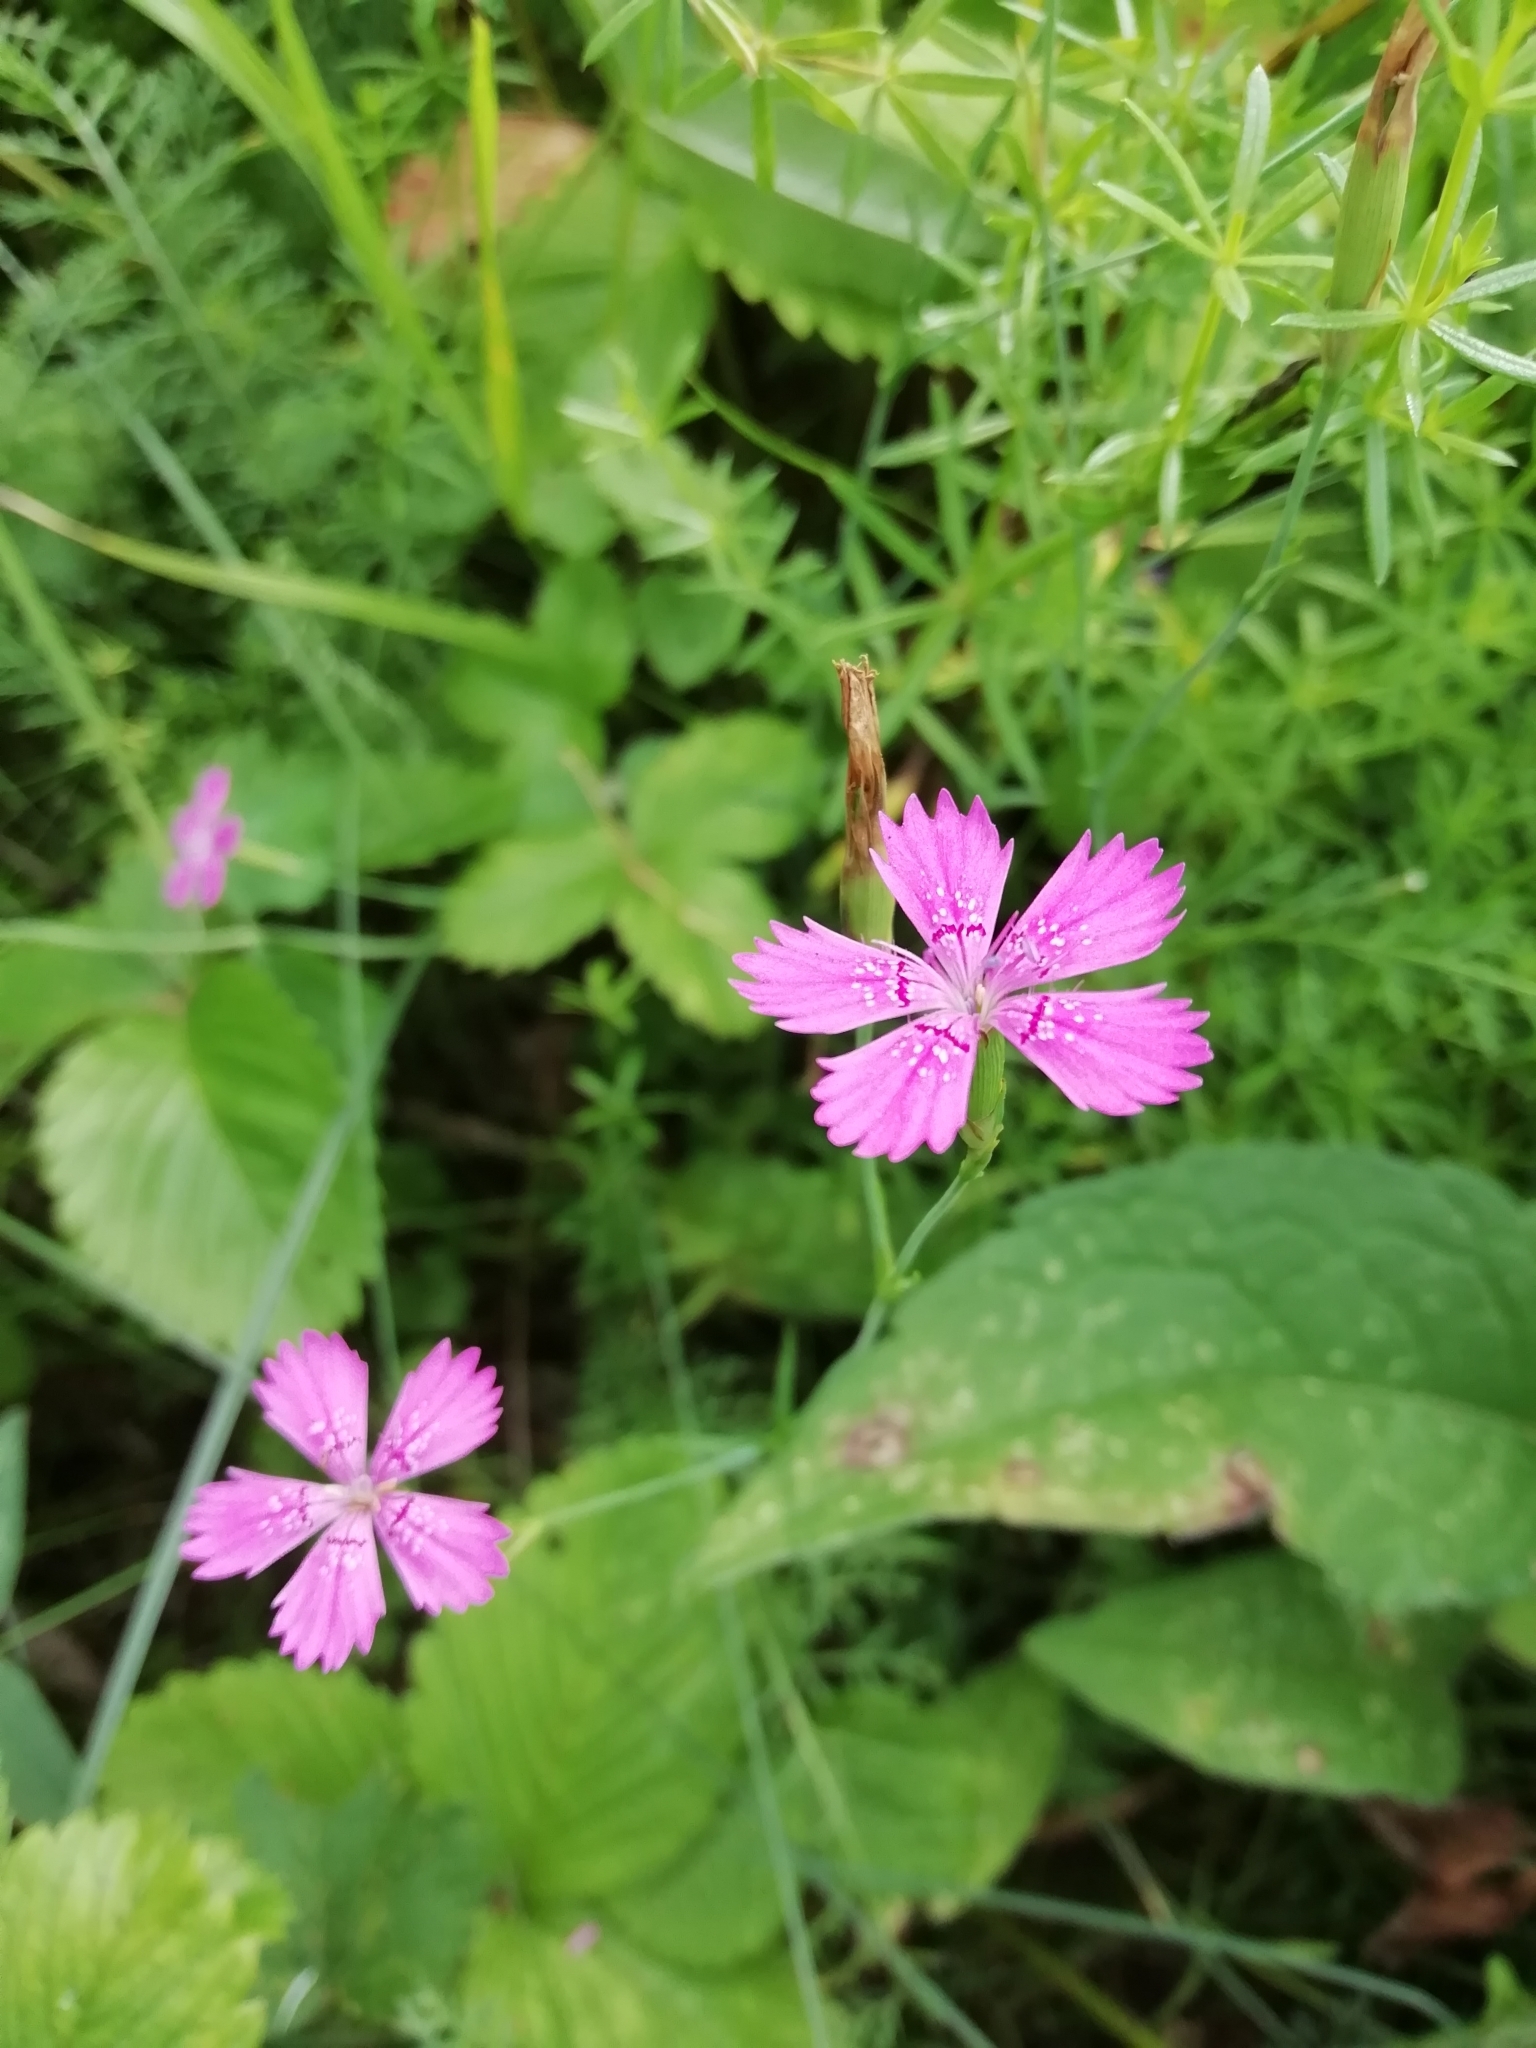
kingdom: Plantae
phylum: Tracheophyta
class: Magnoliopsida
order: Caryophyllales
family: Caryophyllaceae
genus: Dianthus
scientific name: Dianthus deltoides
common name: Maiden pink
